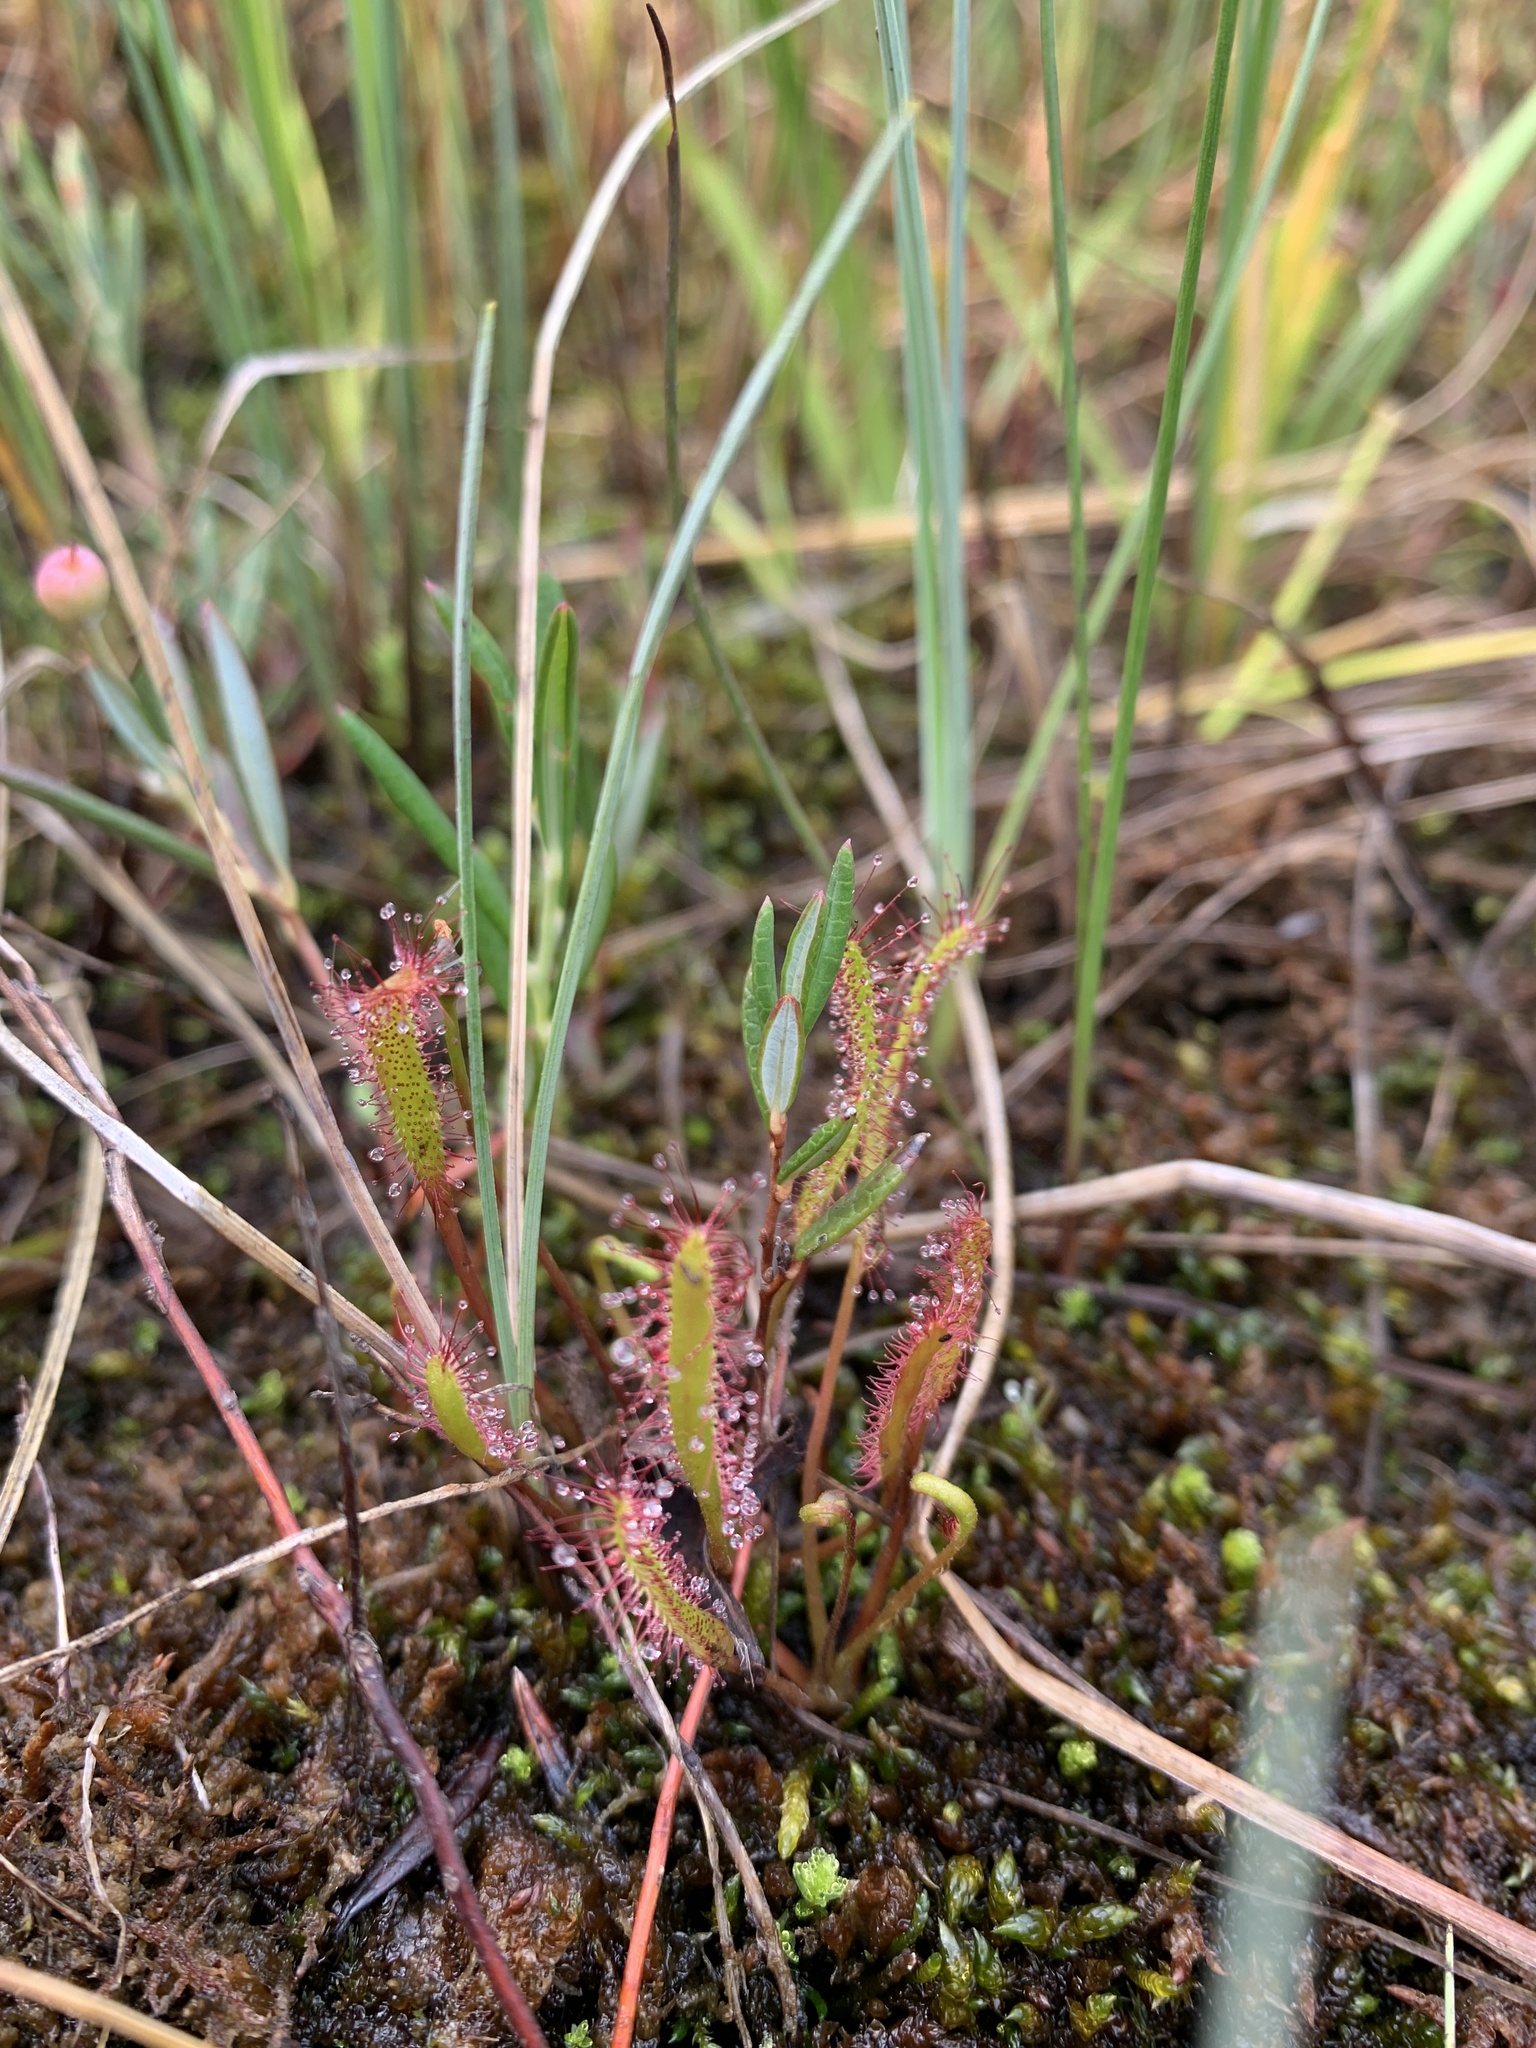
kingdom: Plantae
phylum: Tracheophyta
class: Magnoliopsida
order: Caryophyllales
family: Droseraceae
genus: Drosera
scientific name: Drosera linearis
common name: Linear-leaved sundew
